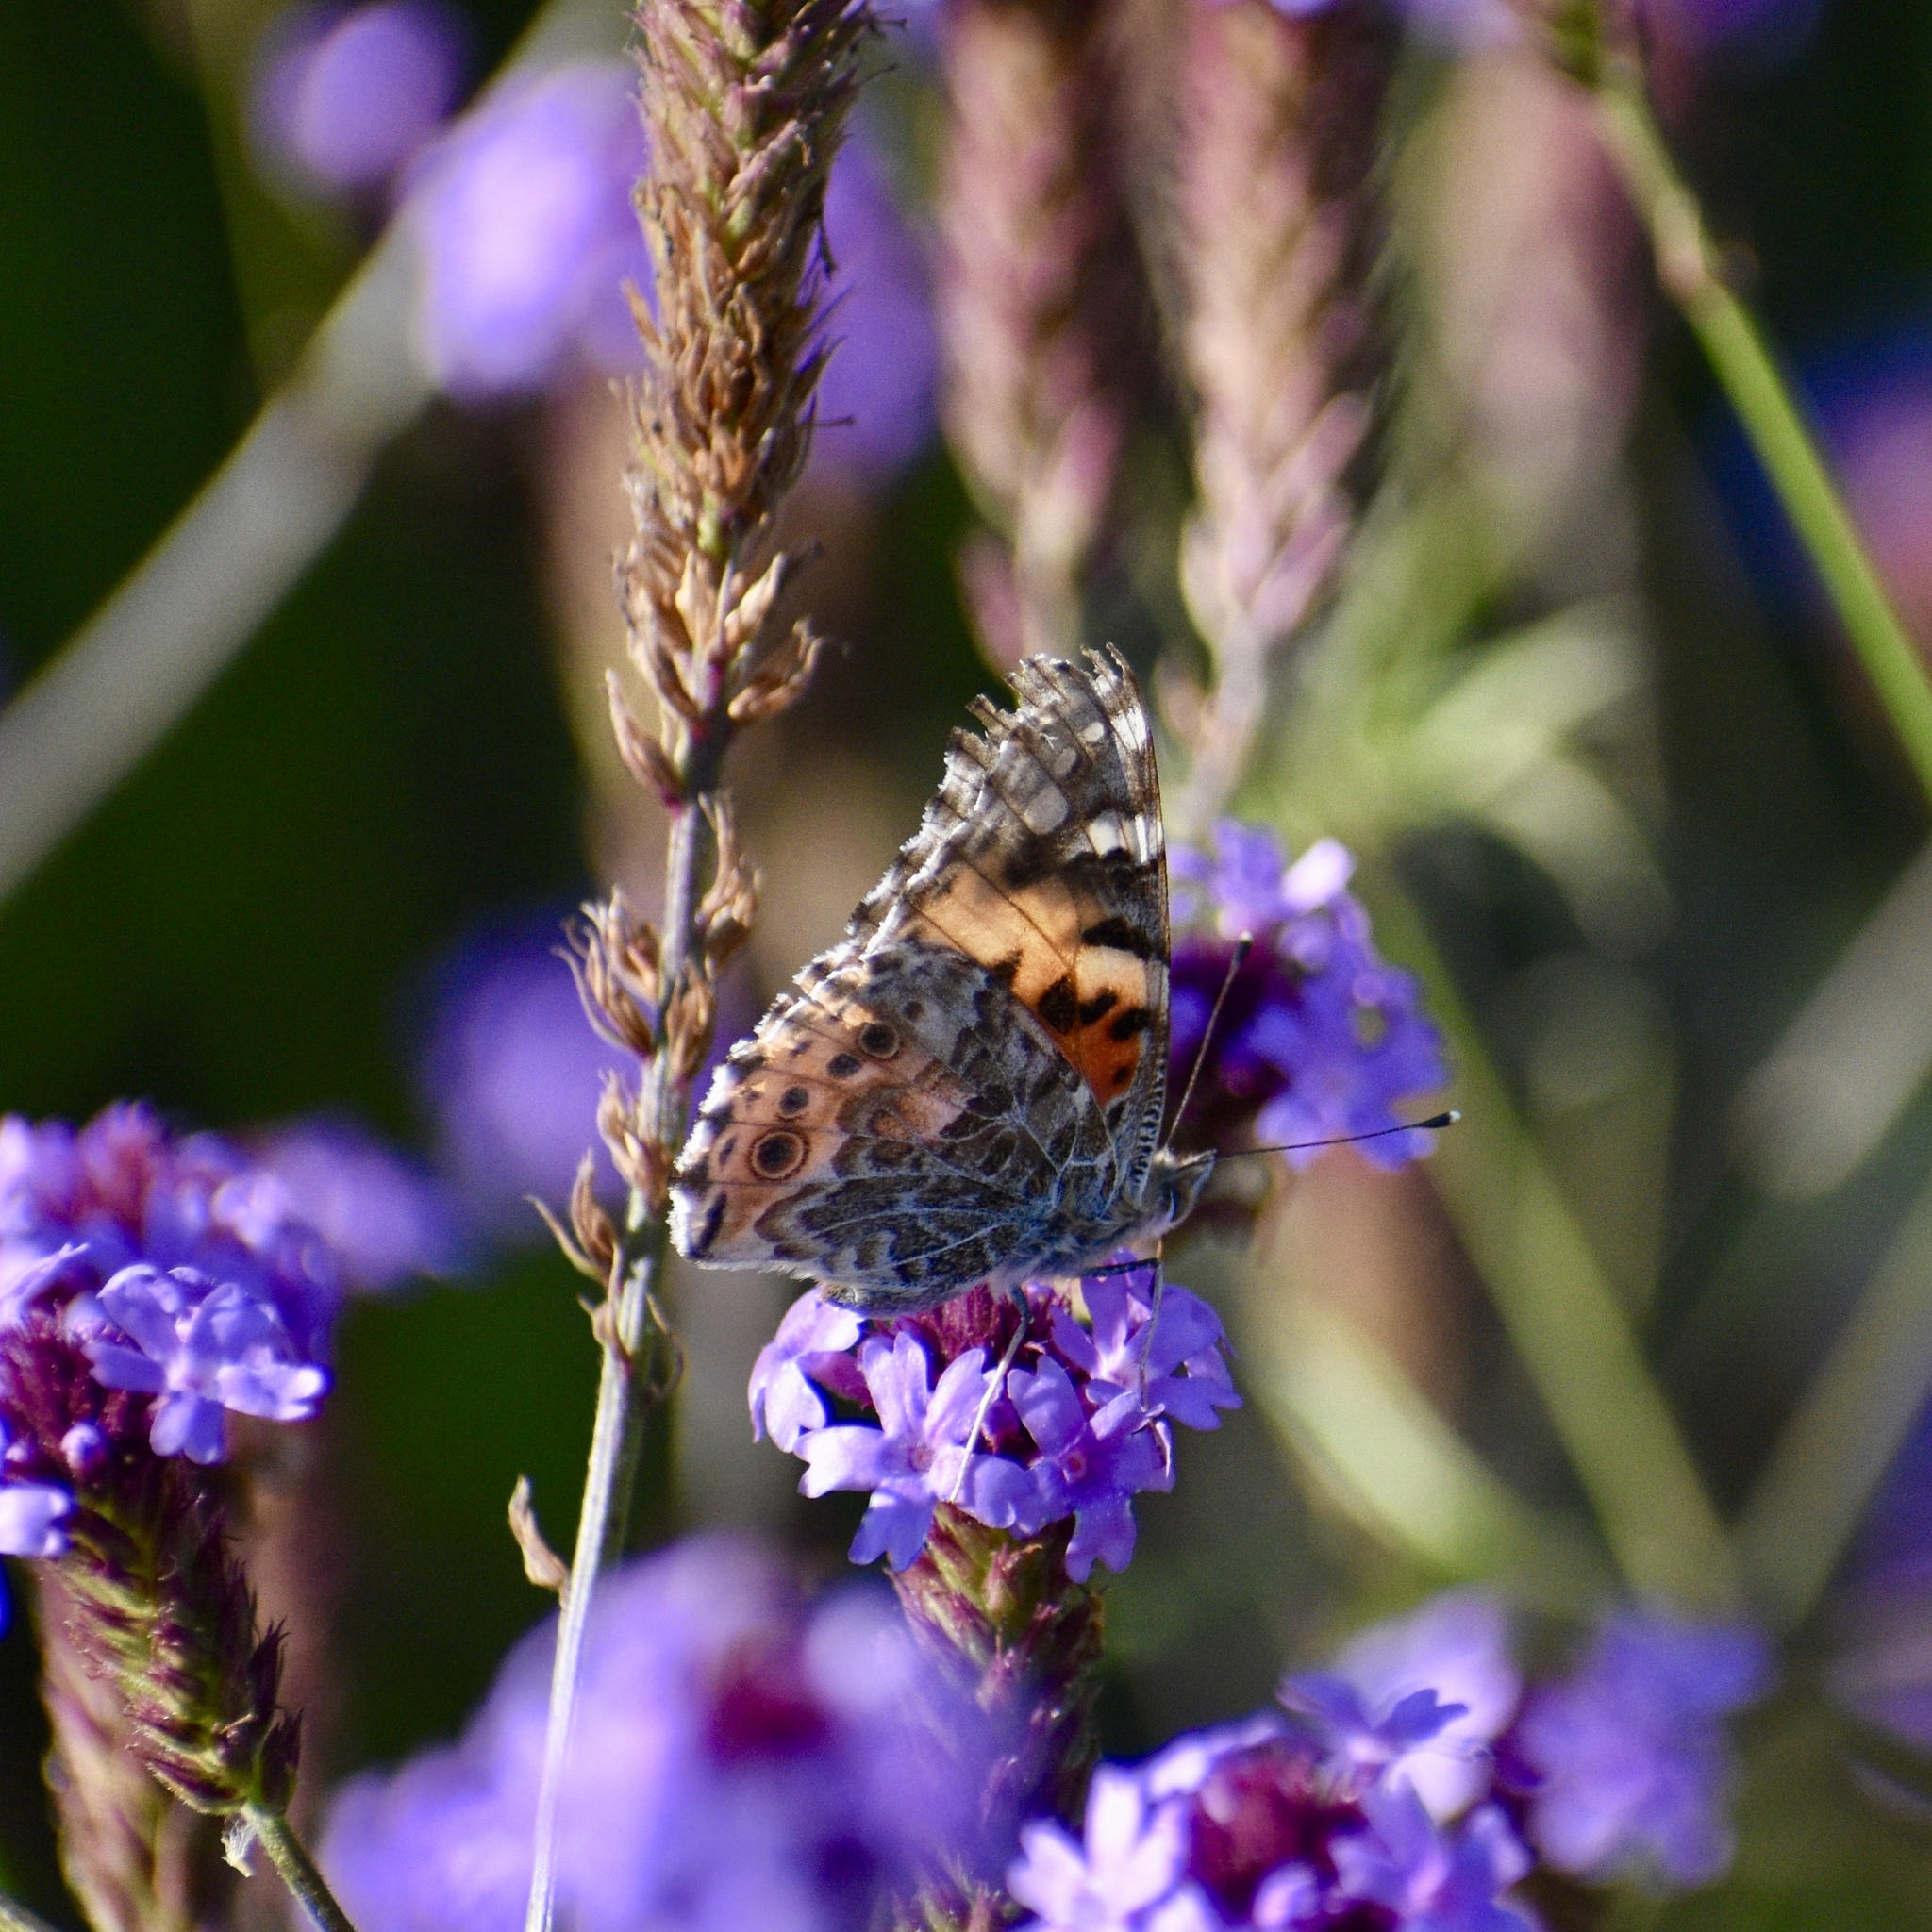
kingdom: Animalia
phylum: Arthropoda
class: Insecta
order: Lepidoptera
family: Nymphalidae
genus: Vanessa
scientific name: Vanessa cardui
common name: Painted lady
